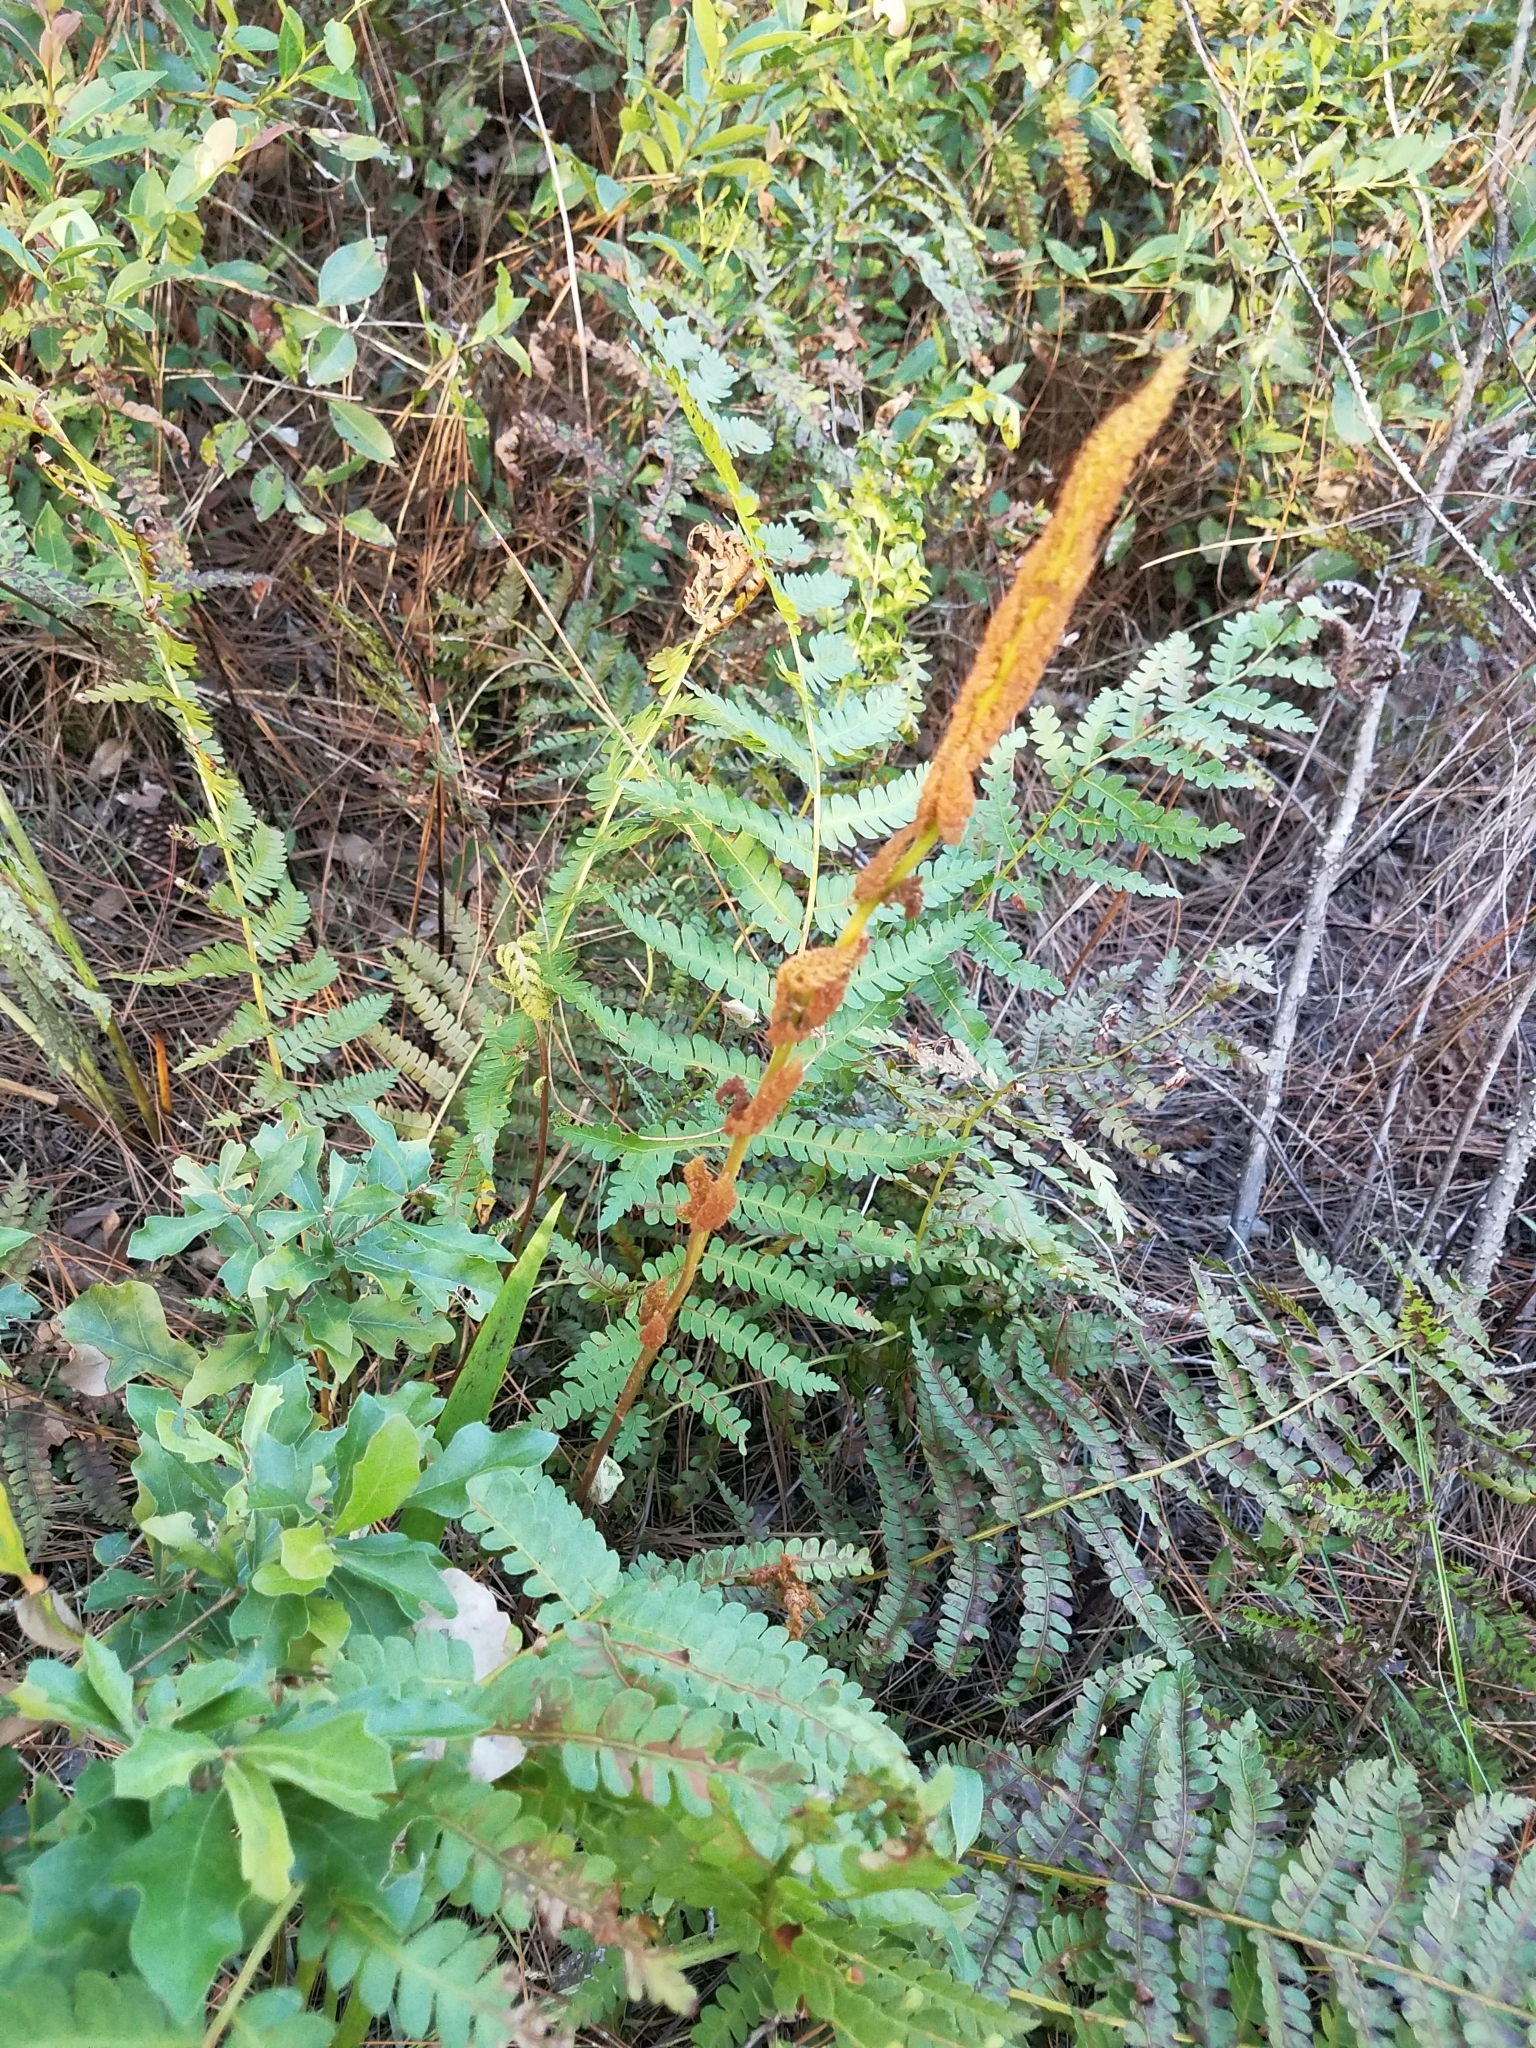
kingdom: Plantae
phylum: Tracheophyta
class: Polypodiopsida
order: Osmundales
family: Osmundaceae
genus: Osmundastrum
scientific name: Osmundastrum cinnamomeum
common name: Cinnamon fern
